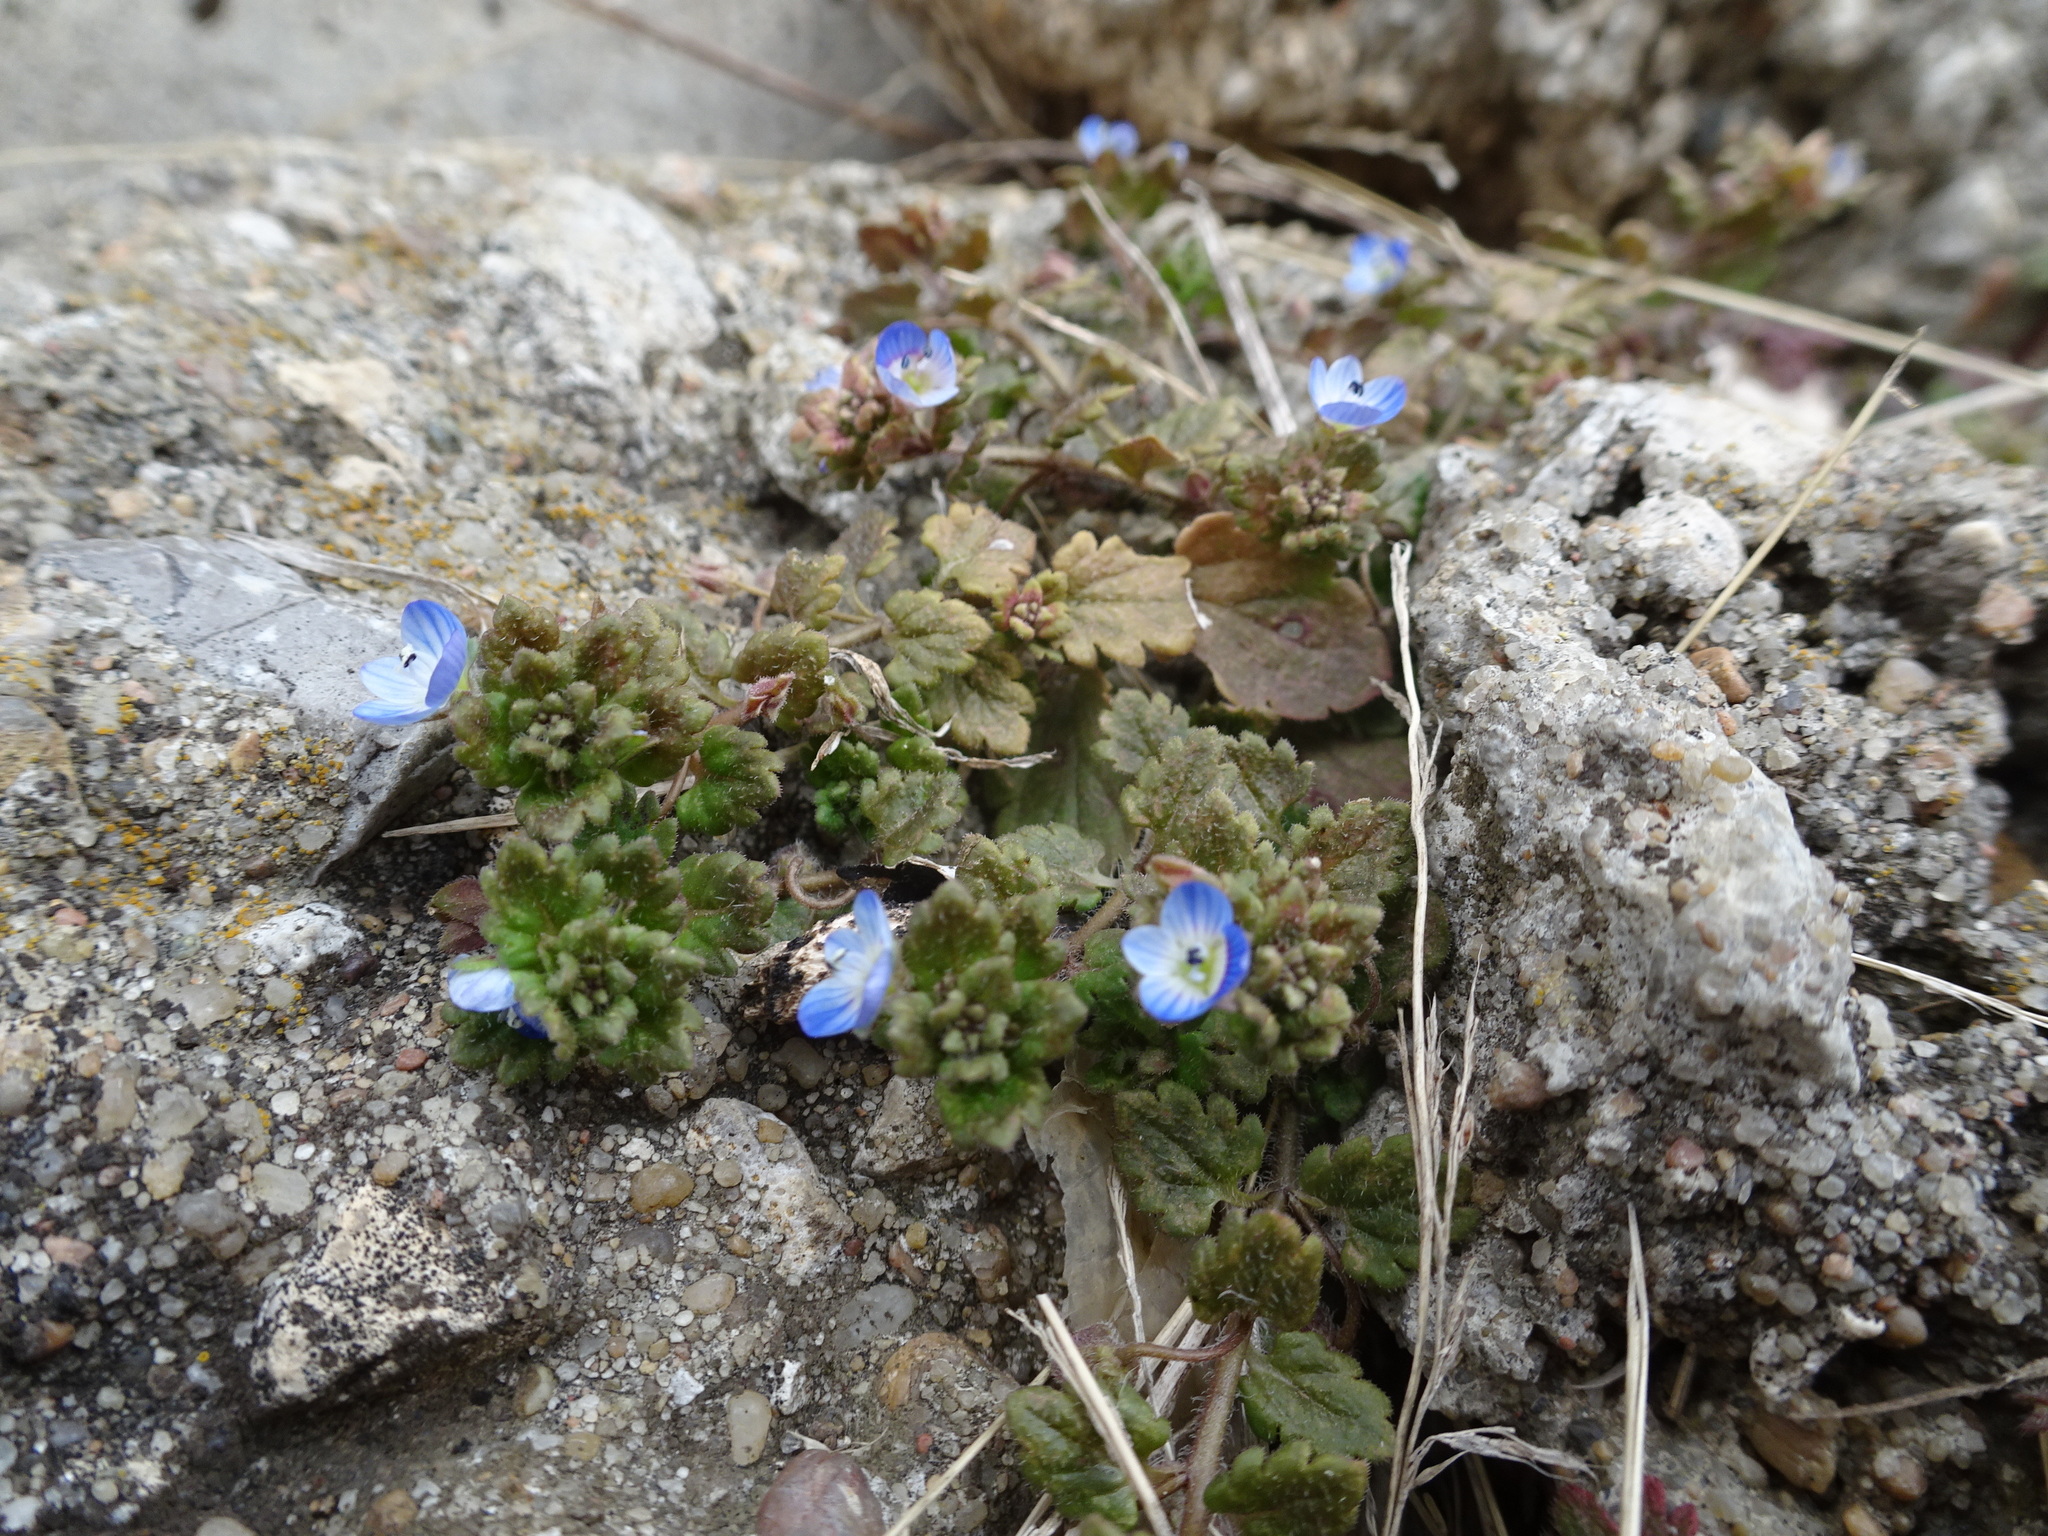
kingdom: Plantae
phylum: Tracheophyta
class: Magnoliopsida
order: Lamiales
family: Plantaginaceae
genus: Veronica
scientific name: Veronica polita
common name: Grey field-speedwell
